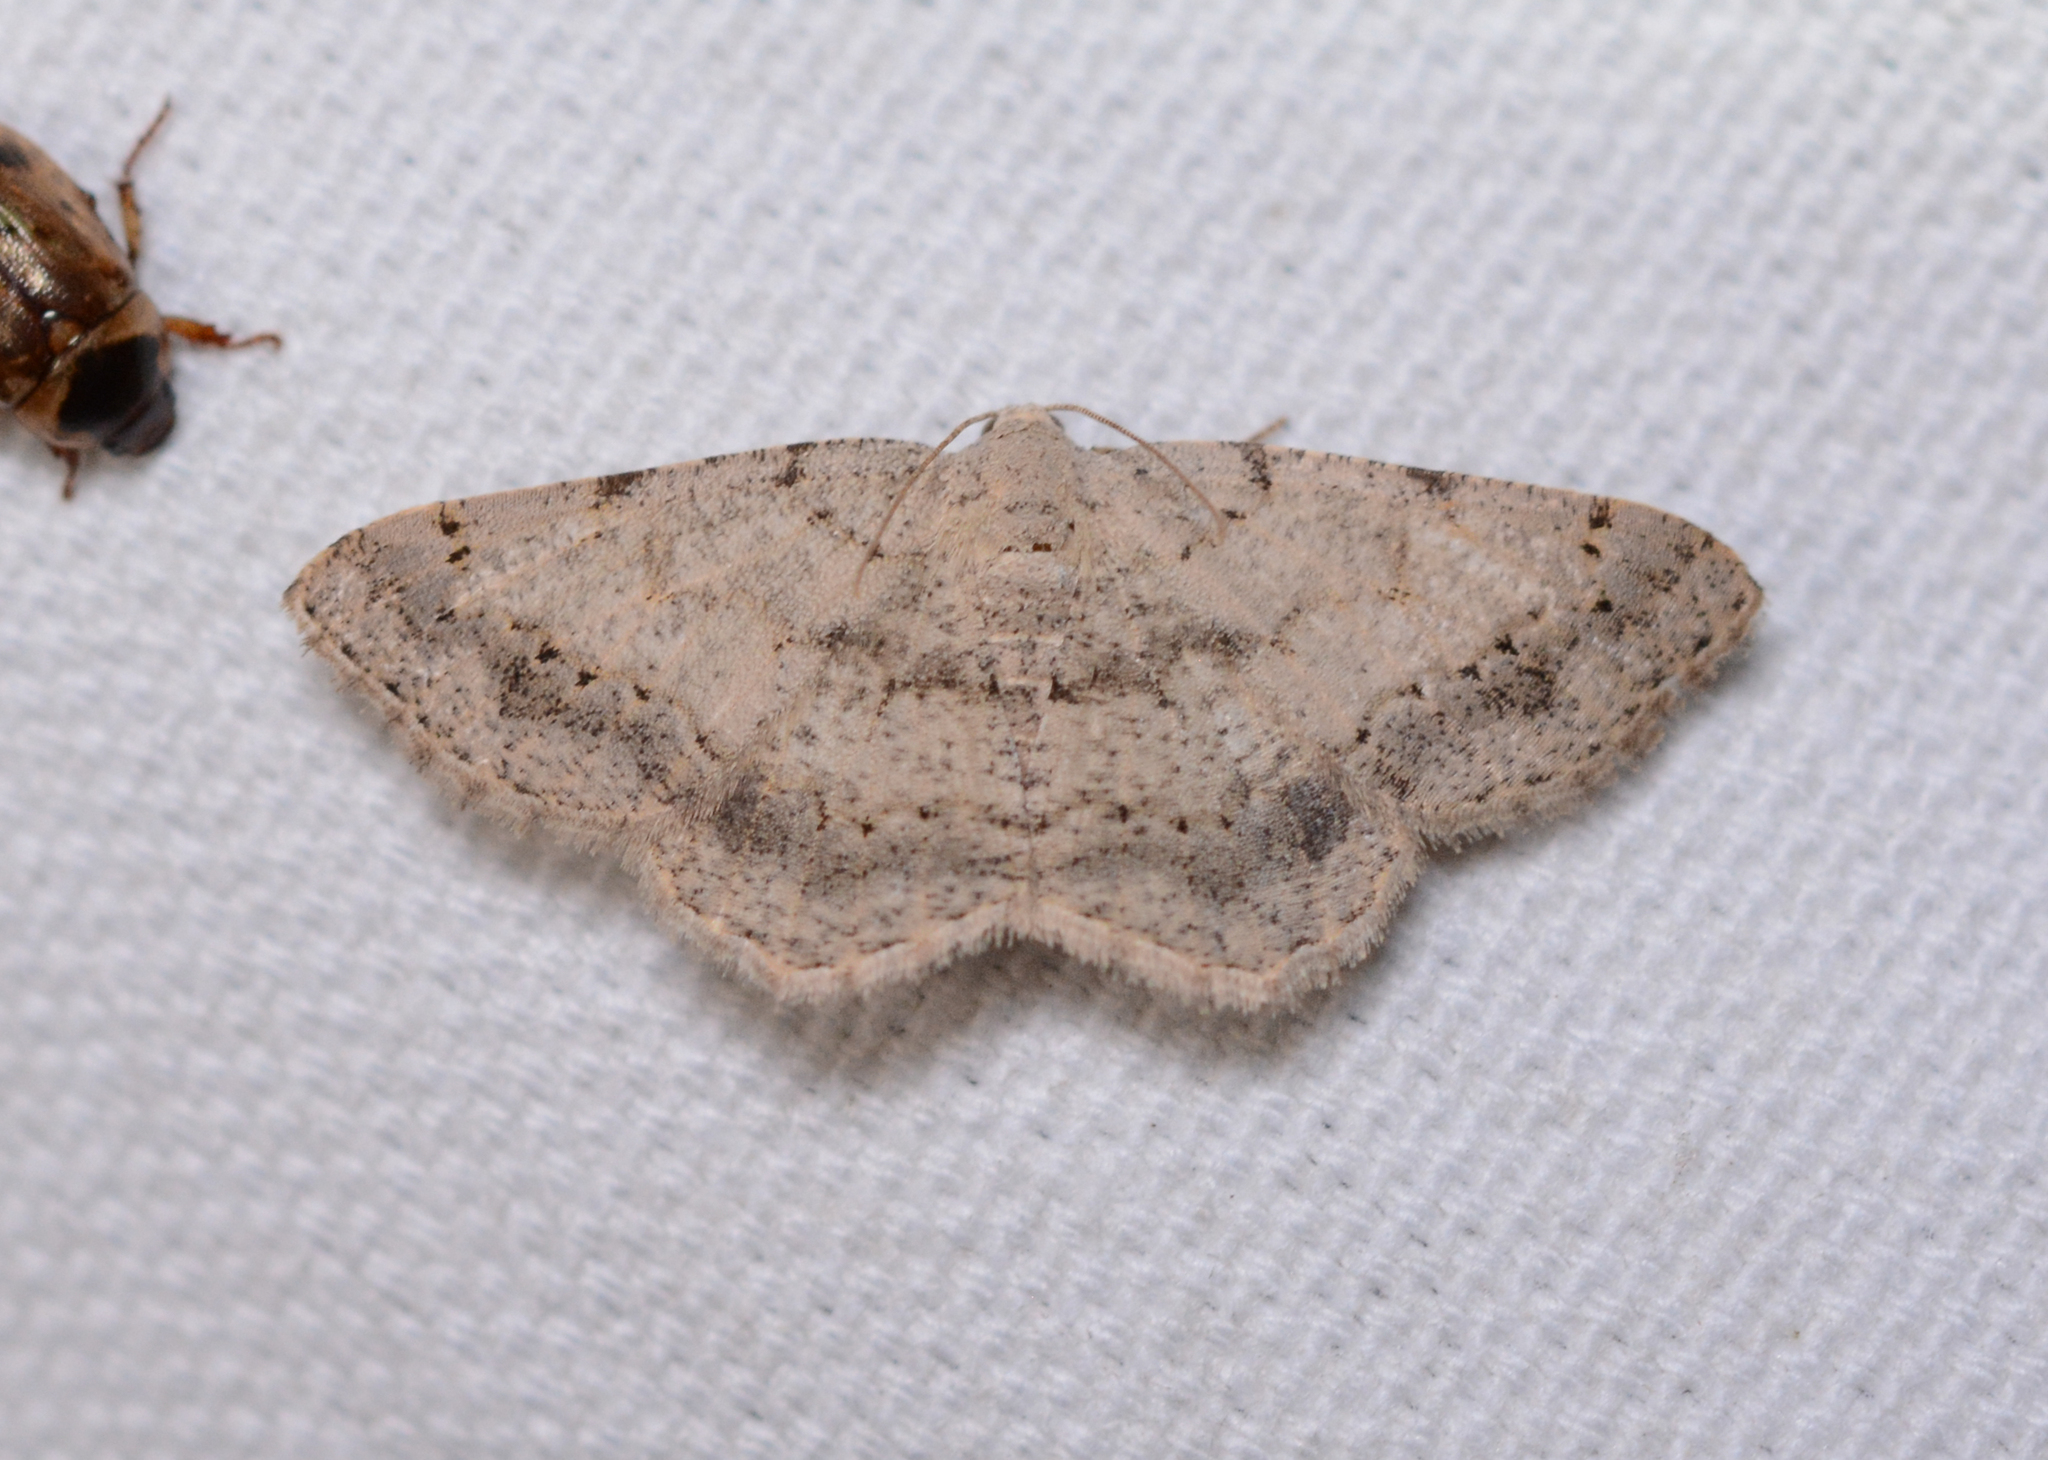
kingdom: Animalia
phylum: Arthropoda
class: Insecta
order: Lepidoptera
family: Geometridae
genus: Digrammia
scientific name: Digrammia ocellinata
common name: Faint-spotted angle
